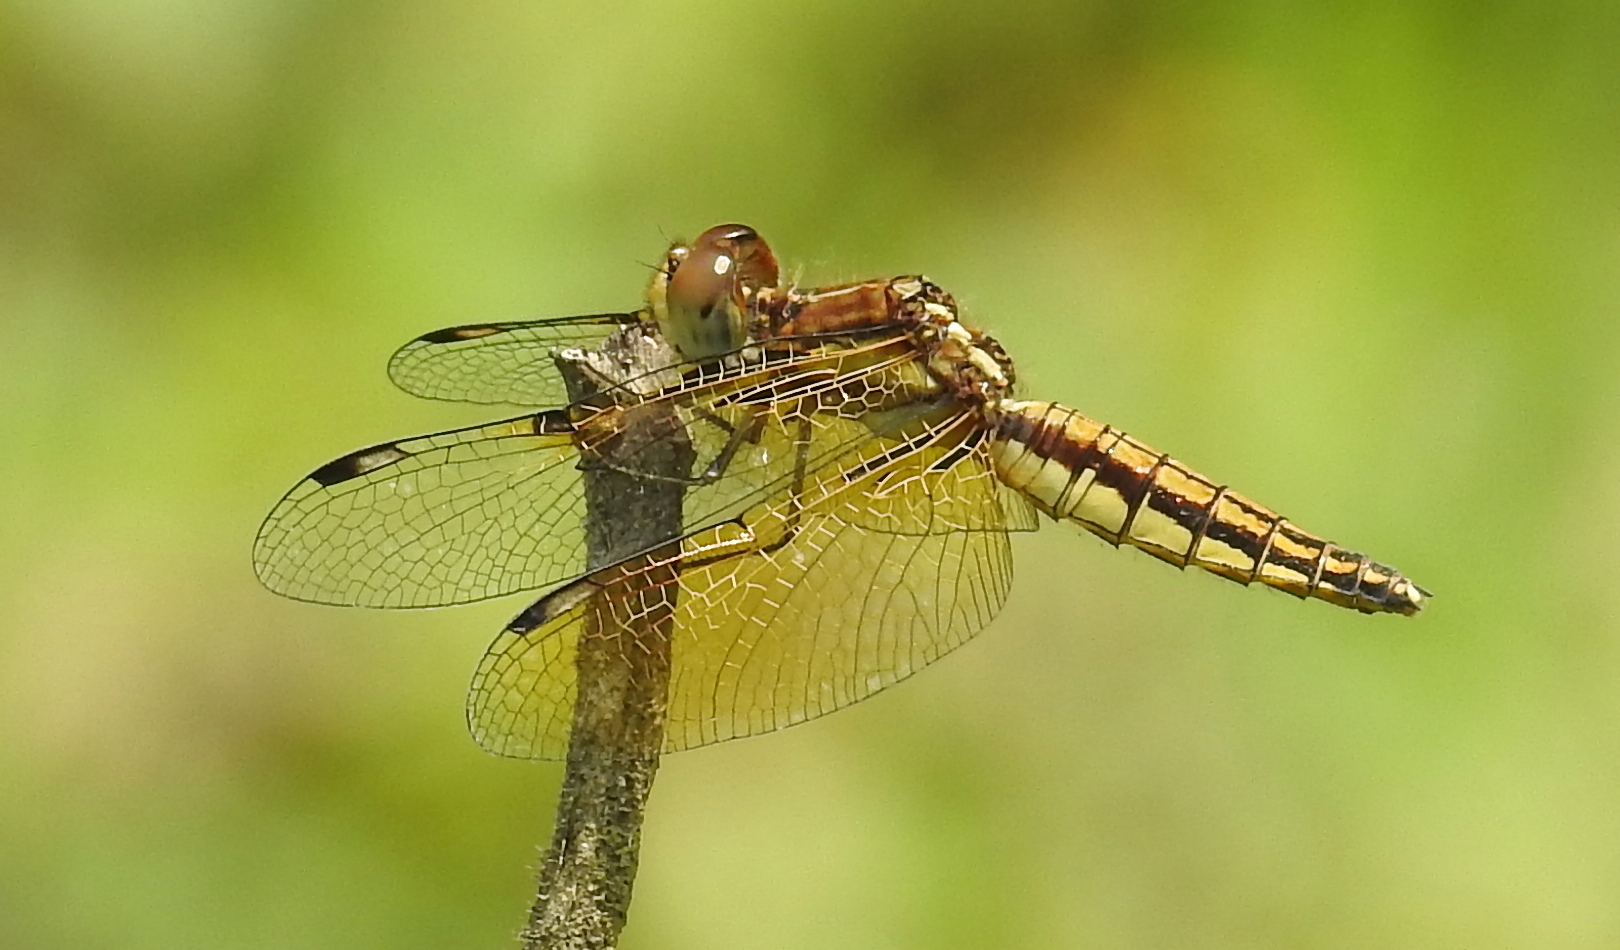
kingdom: Animalia
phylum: Arthropoda
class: Insecta
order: Odonata
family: Libellulidae
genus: Palpopleura
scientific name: Palpopleura sexmaculata
